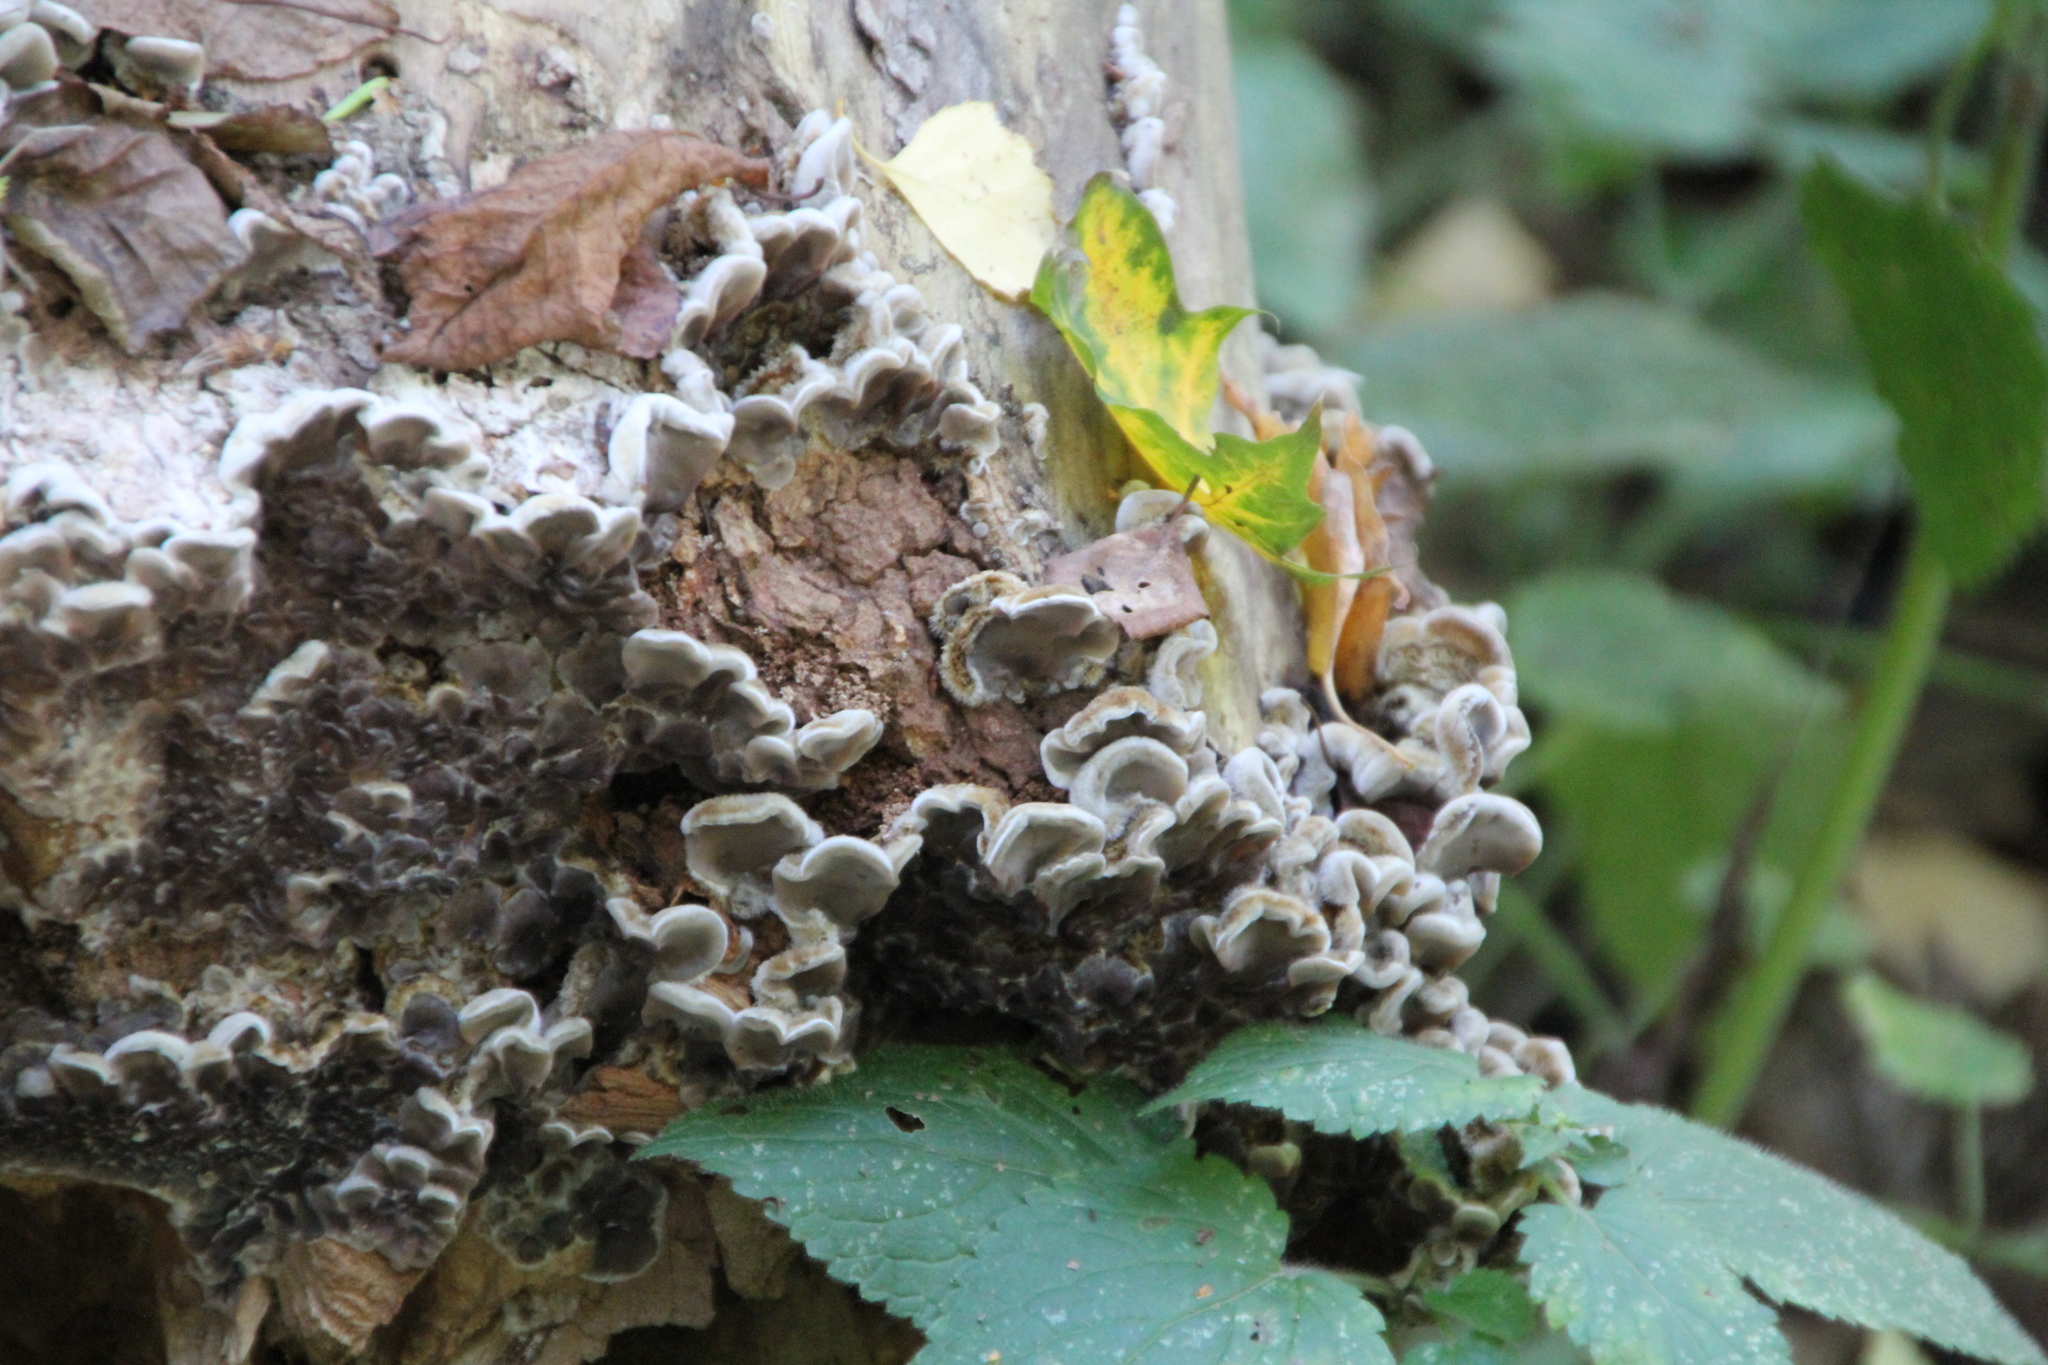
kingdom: Fungi
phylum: Basidiomycota
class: Agaricomycetes
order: Auriculariales
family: Auriculariaceae
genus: Auricularia
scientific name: Auricularia mesenterica
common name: Tripe fungus
